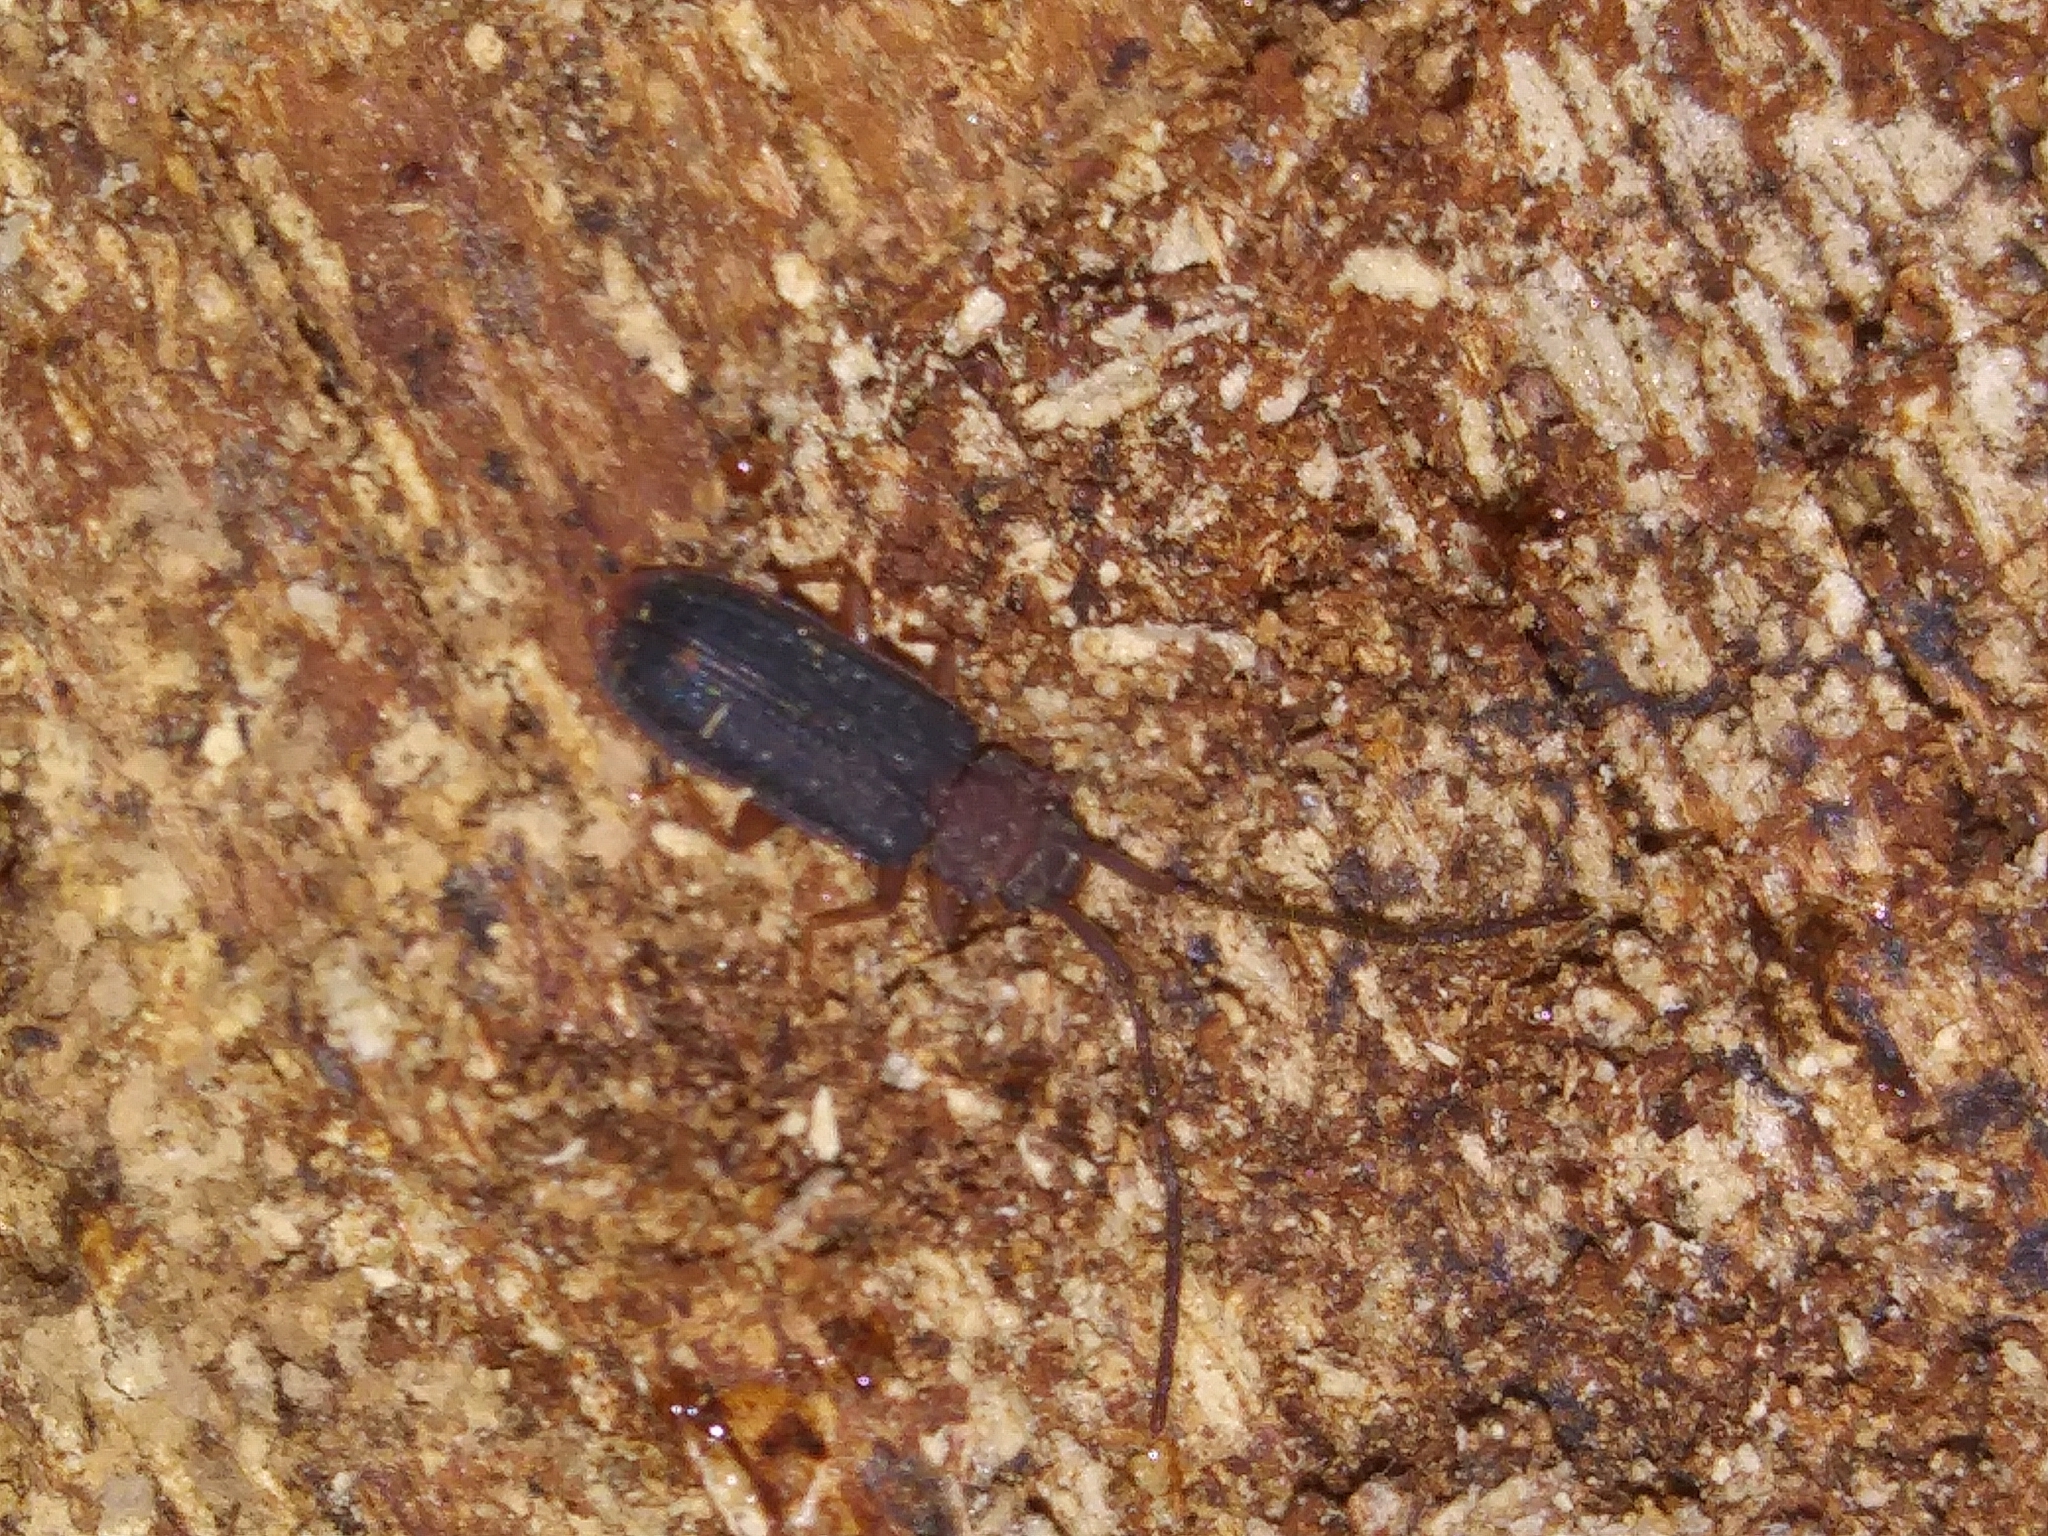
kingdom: Animalia
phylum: Arthropoda
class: Insecta
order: Coleoptera
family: Silvanidae
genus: Uleiota
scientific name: Uleiota dubia
